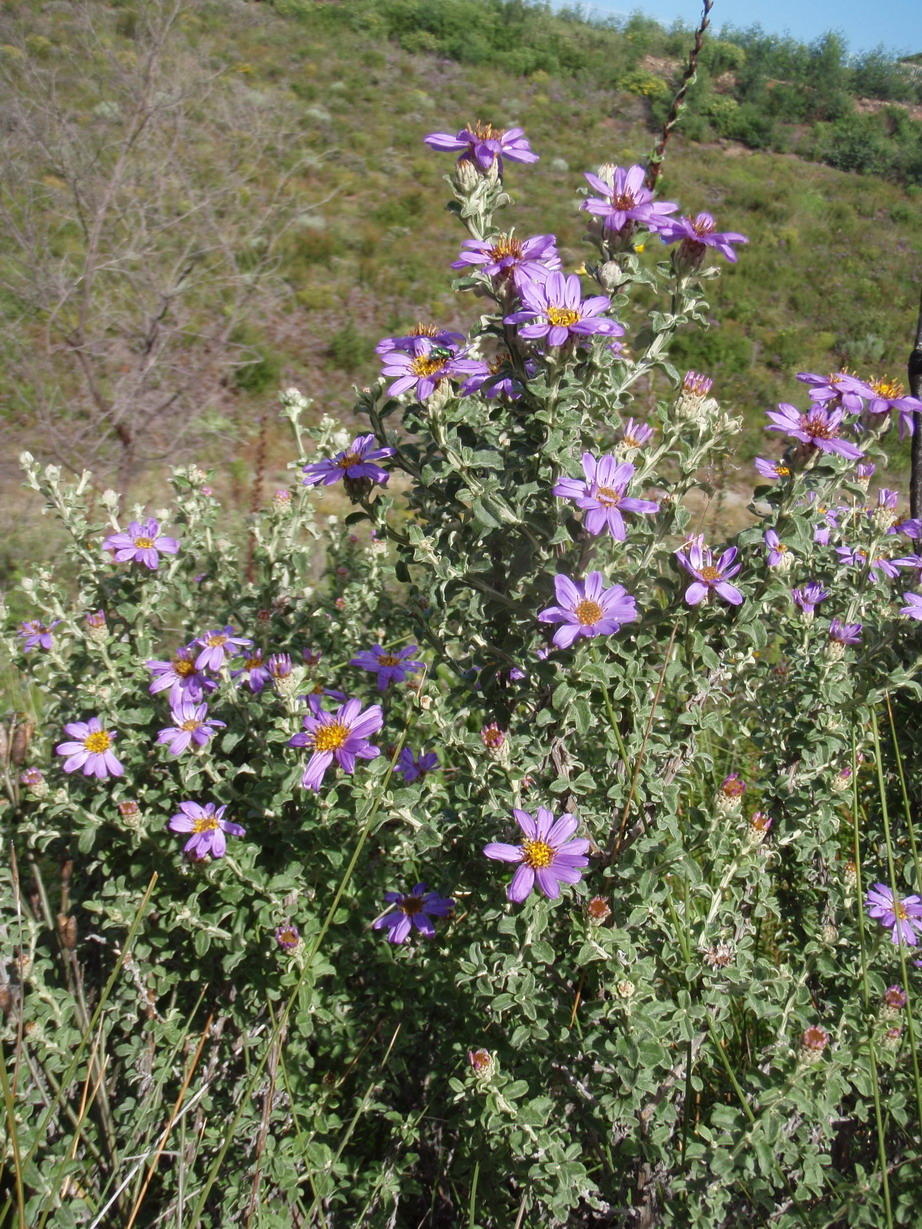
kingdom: Plantae
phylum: Tracheophyta
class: Magnoliopsida
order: Asterales
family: Asteraceae
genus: Printzia
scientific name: Printzia polifolia
